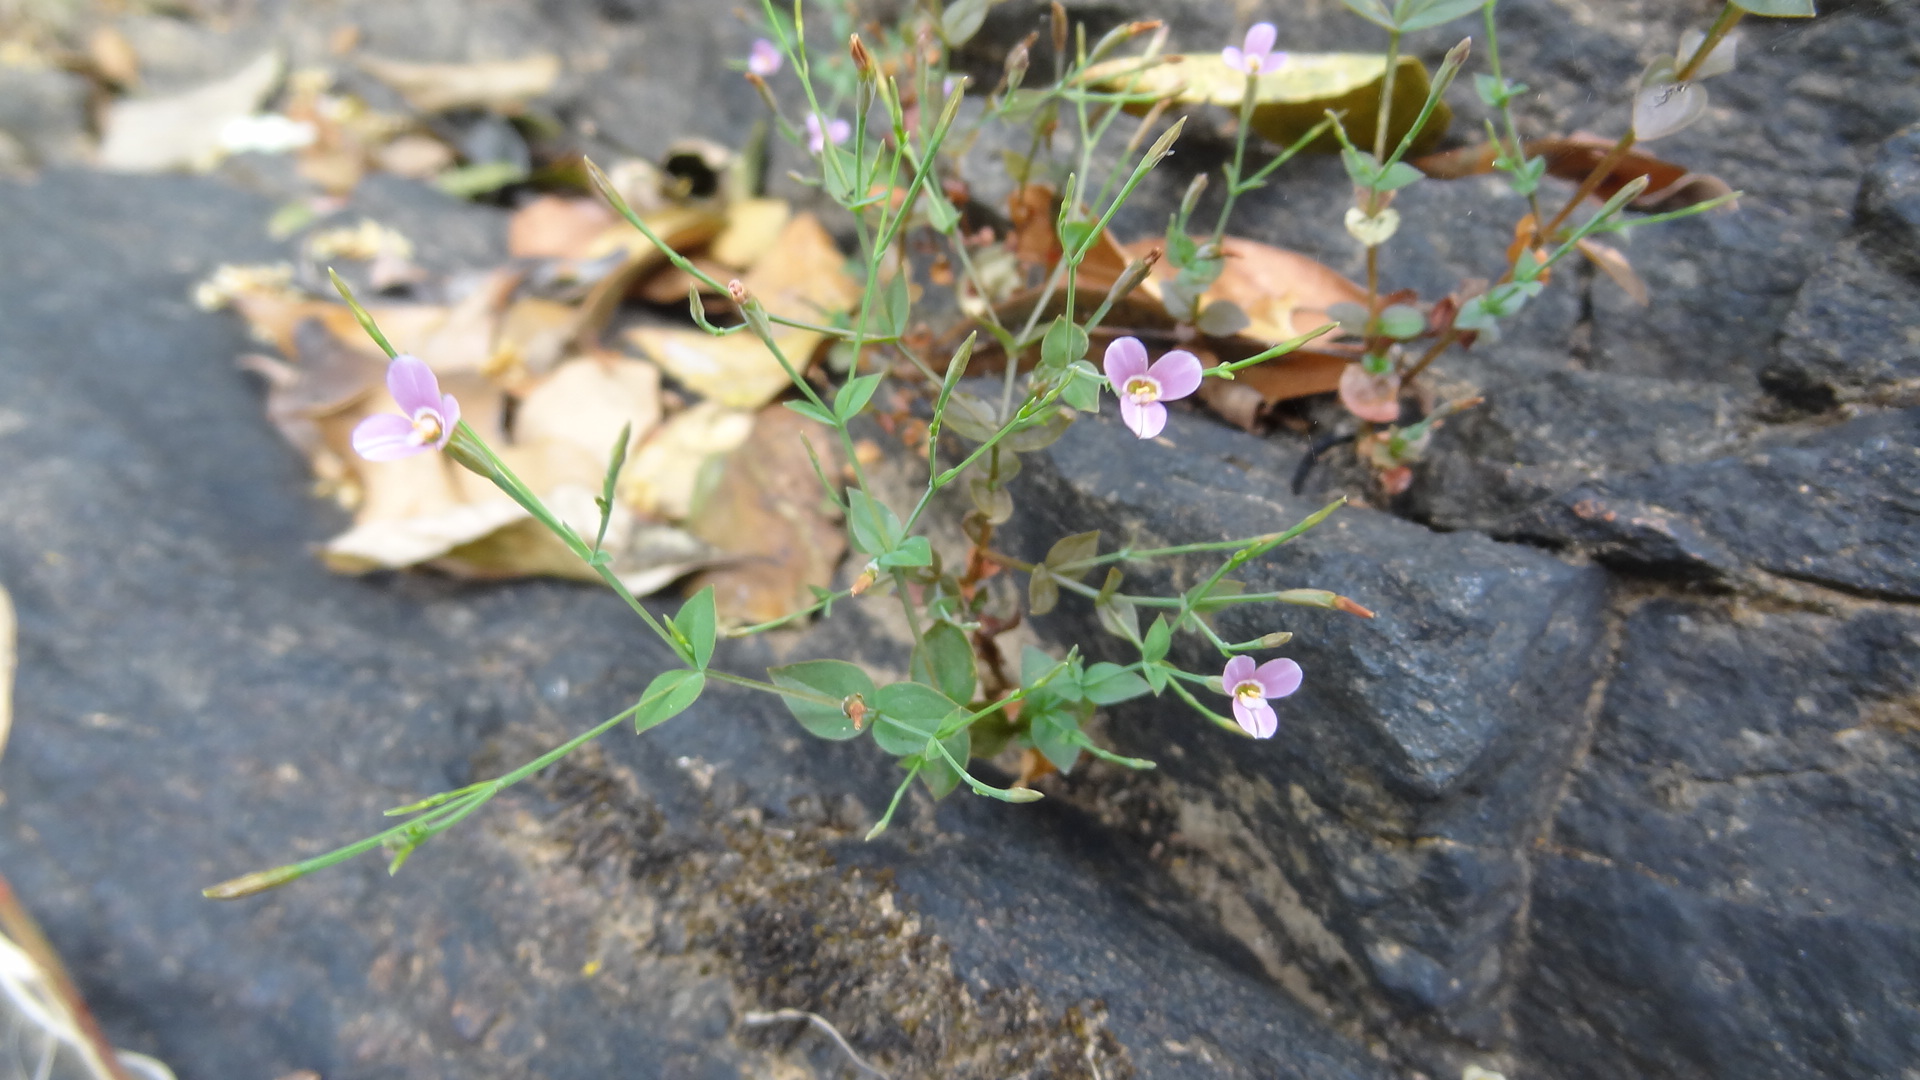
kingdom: Plantae
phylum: Tracheophyta
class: Magnoliopsida
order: Gentianales
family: Gentianaceae
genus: Canscora
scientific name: Canscora diffusa
